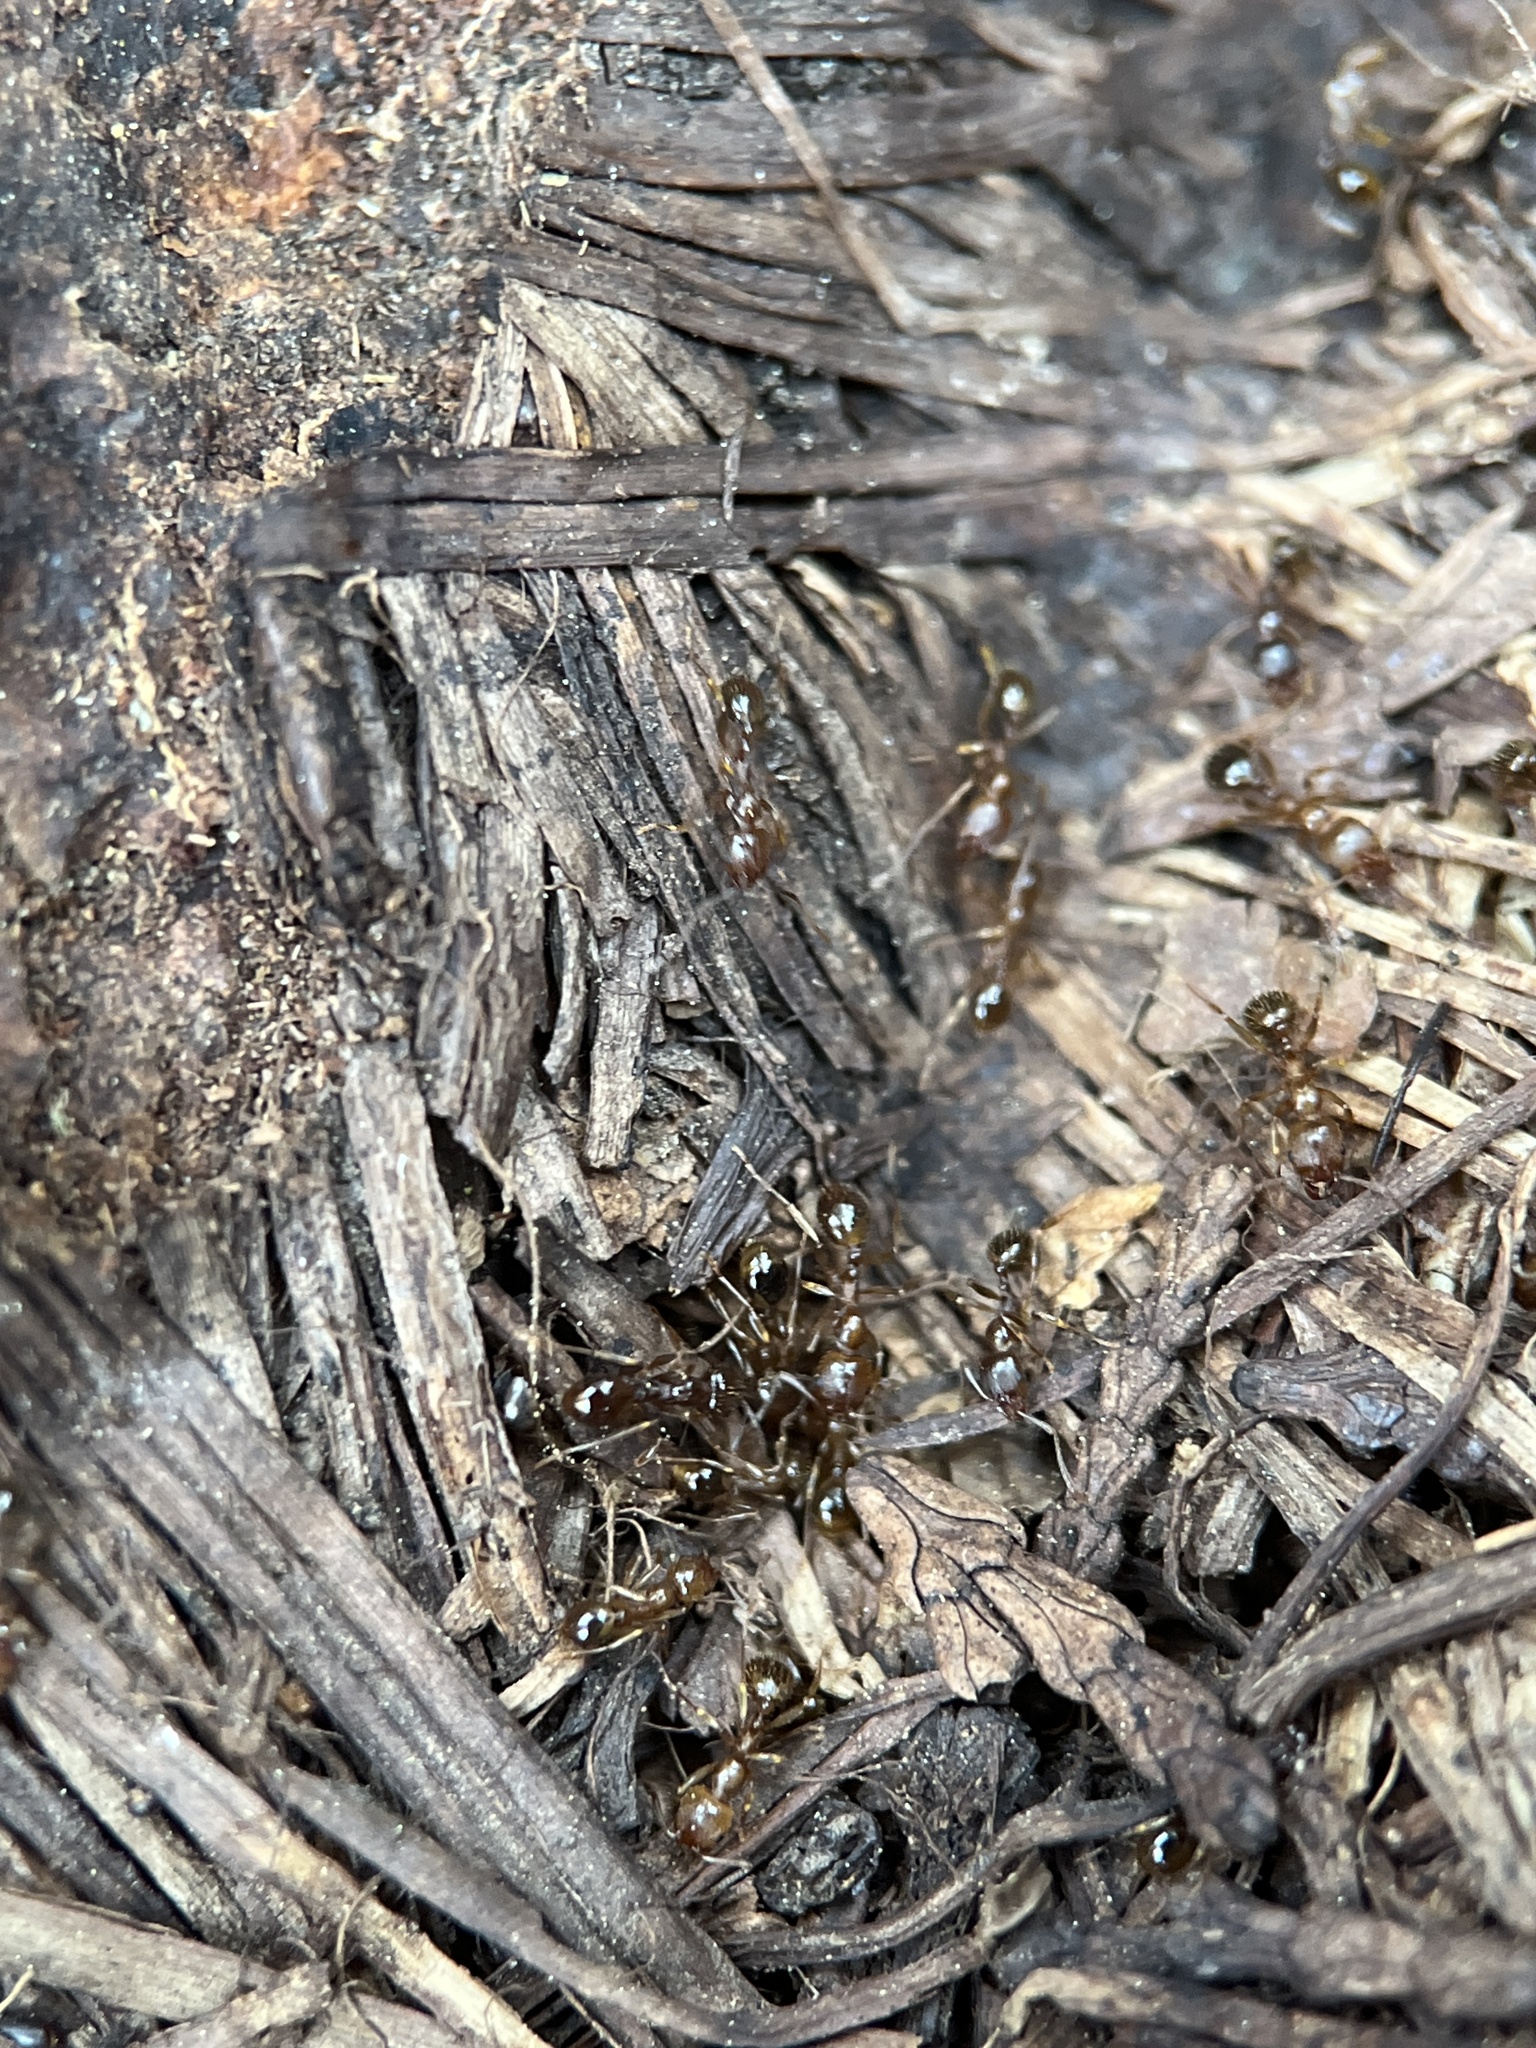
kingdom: Animalia
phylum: Arthropoda
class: Insecta
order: Hymenoptera
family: Formicidae
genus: Aphaenogaster
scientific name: Aphaenogaster occidentalis
